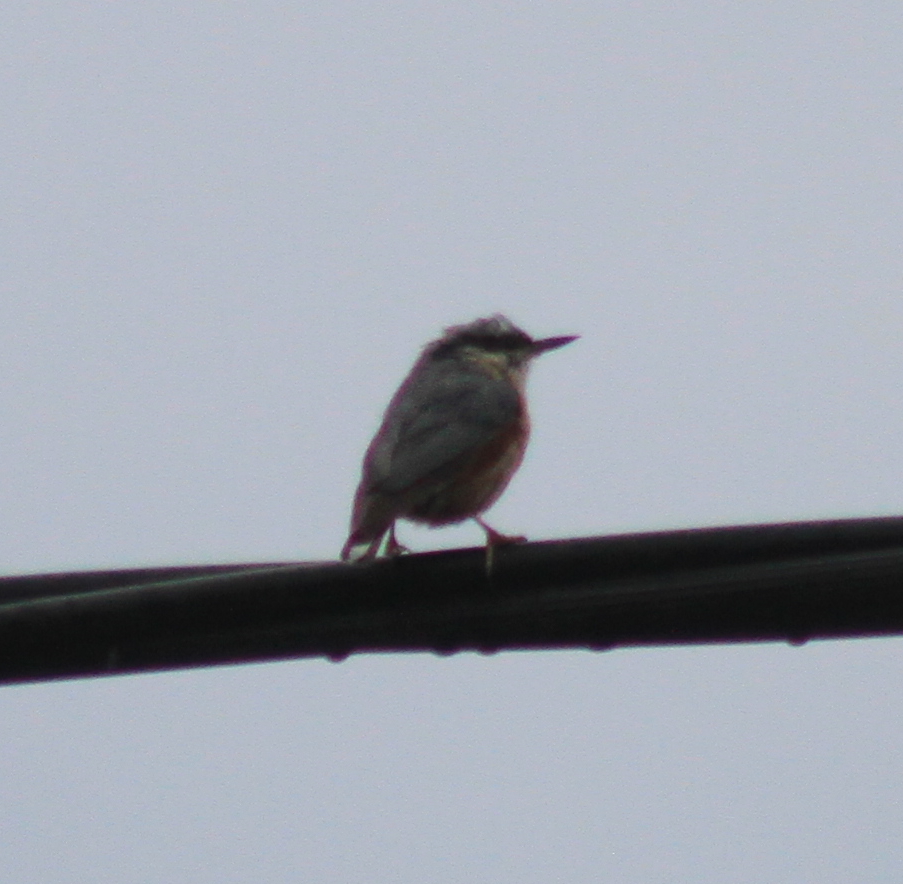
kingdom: Animalia
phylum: Chordata
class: Aves
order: Passeriformes
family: Sittidae
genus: Sitta
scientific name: Sitta europaea
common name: Eurasian nuthatch
